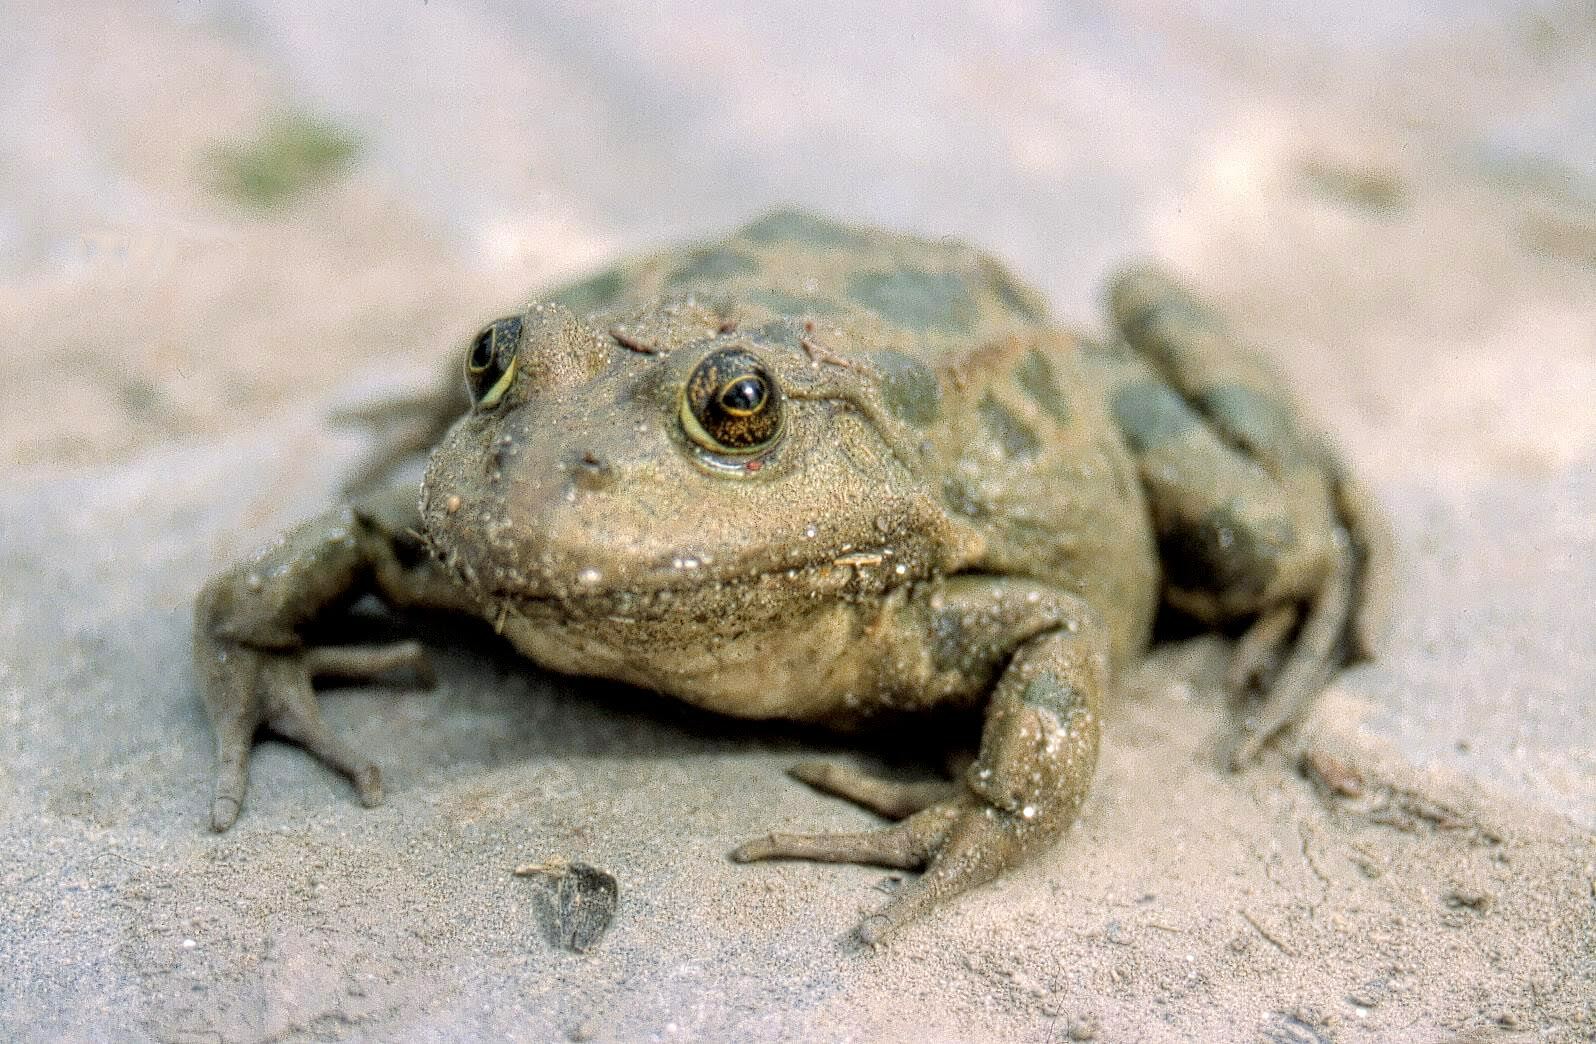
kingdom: Animalia
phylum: Chordata
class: Amphibia
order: Anura
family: Ranidae
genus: Pelophylax
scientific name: Pelophylax ridibundus
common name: Marsh frog
